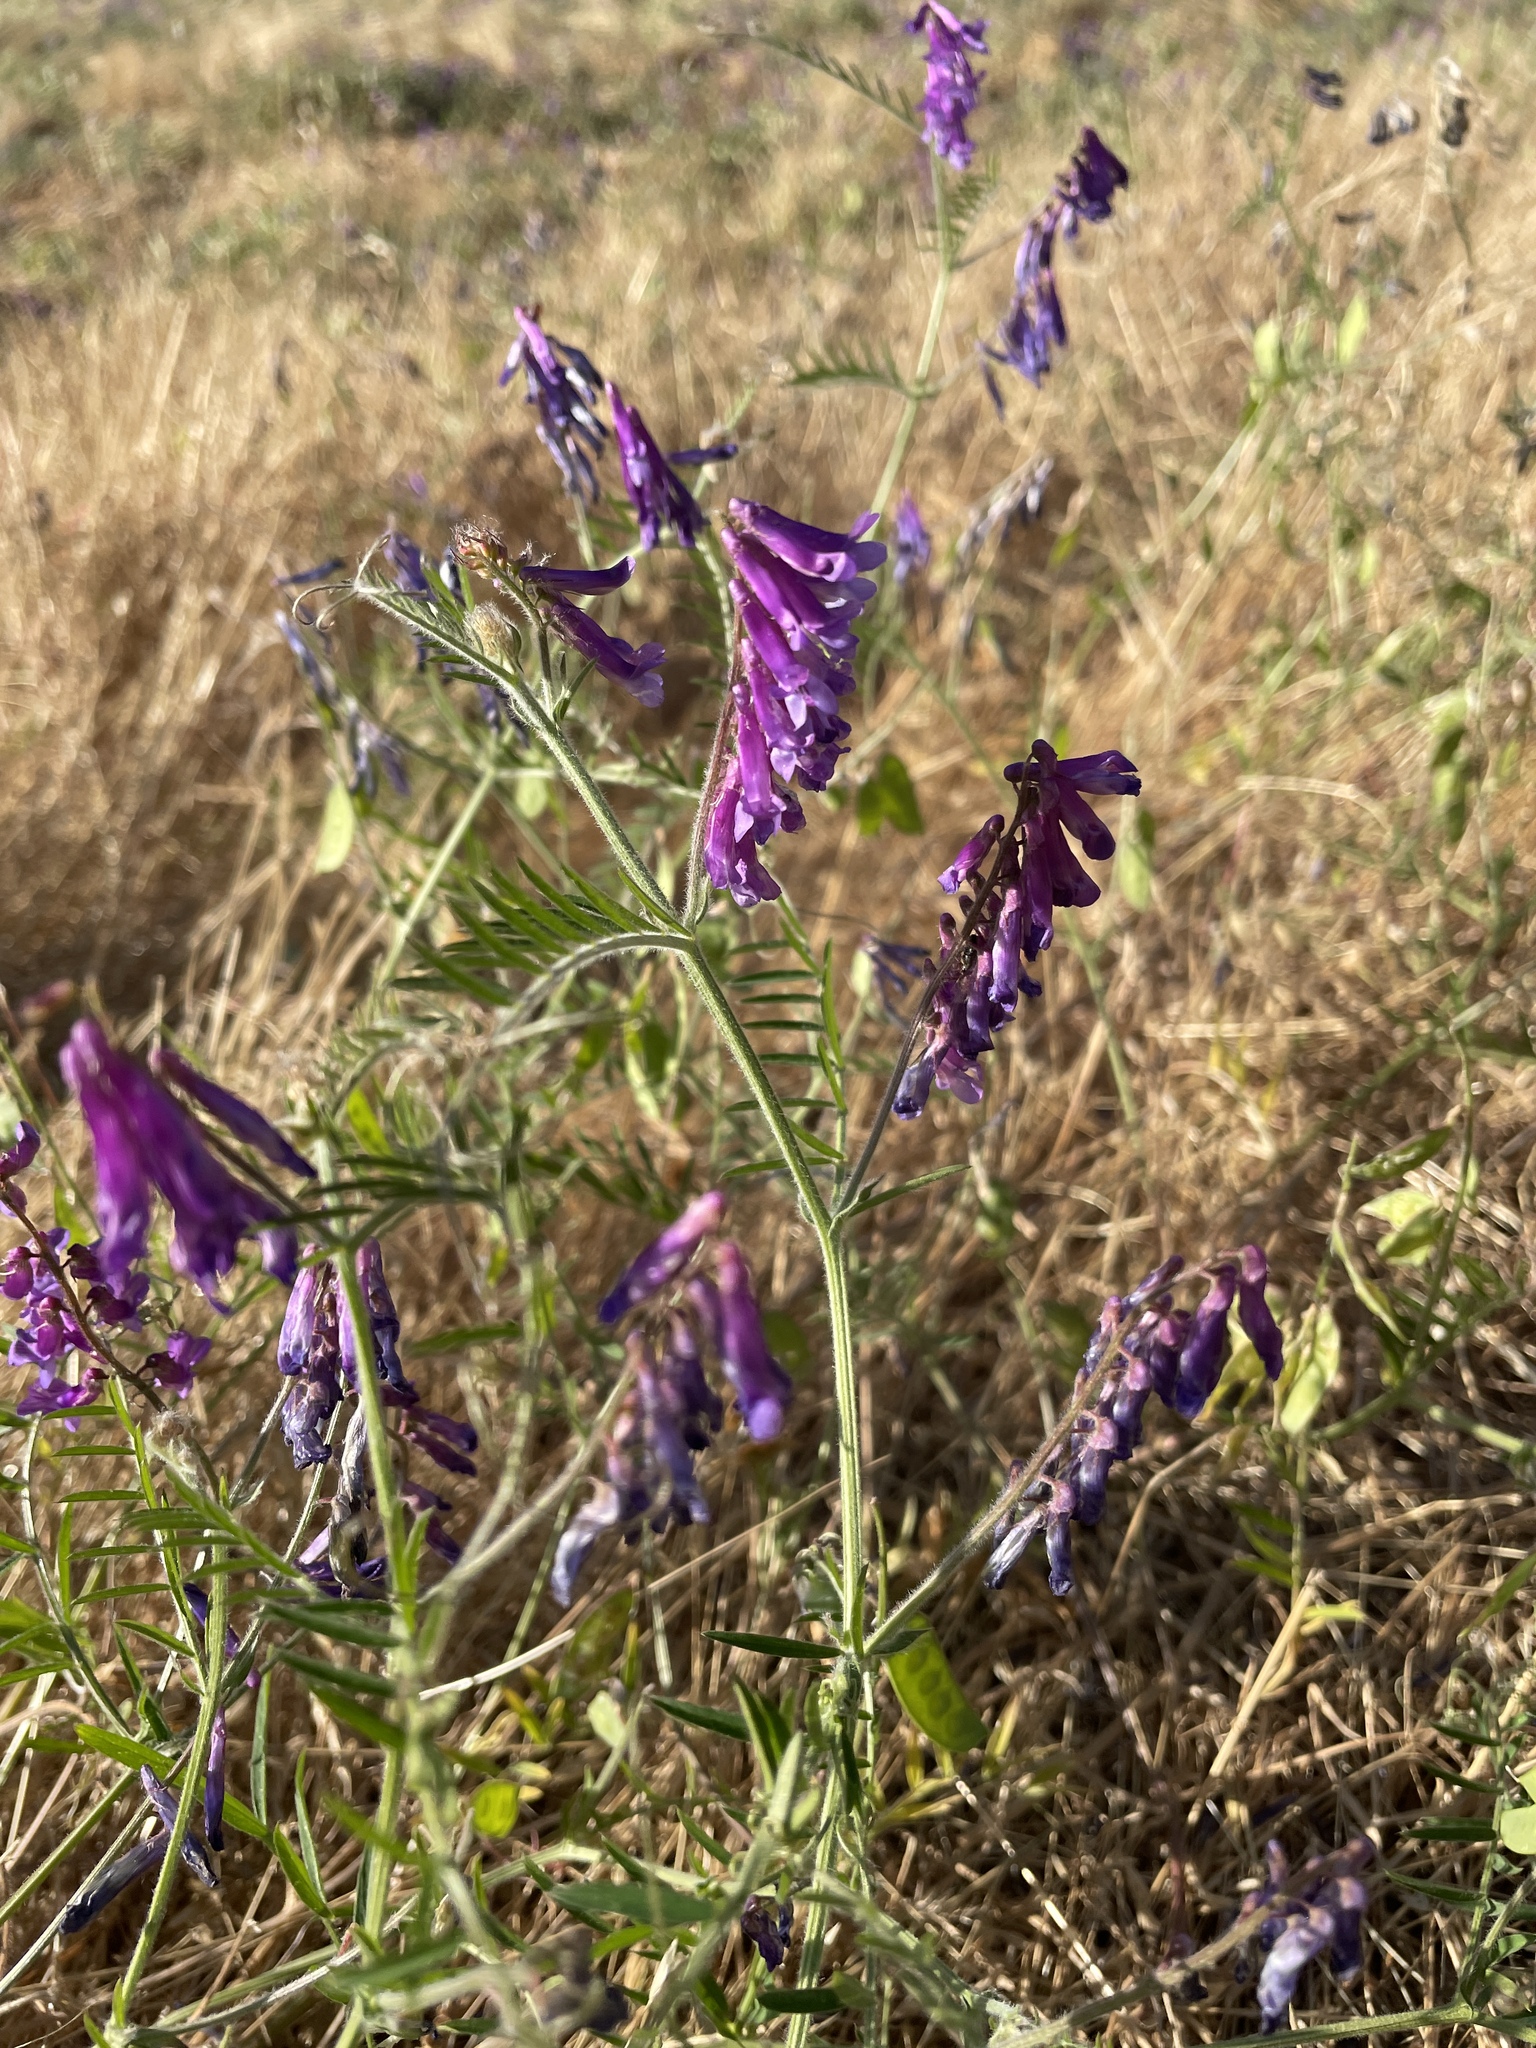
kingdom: Plantae
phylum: Tracheophyta
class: Magnoliopsida
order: Fabales
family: Fabaceae
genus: Vicia
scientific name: Vicia villosa
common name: Fodder vetch
